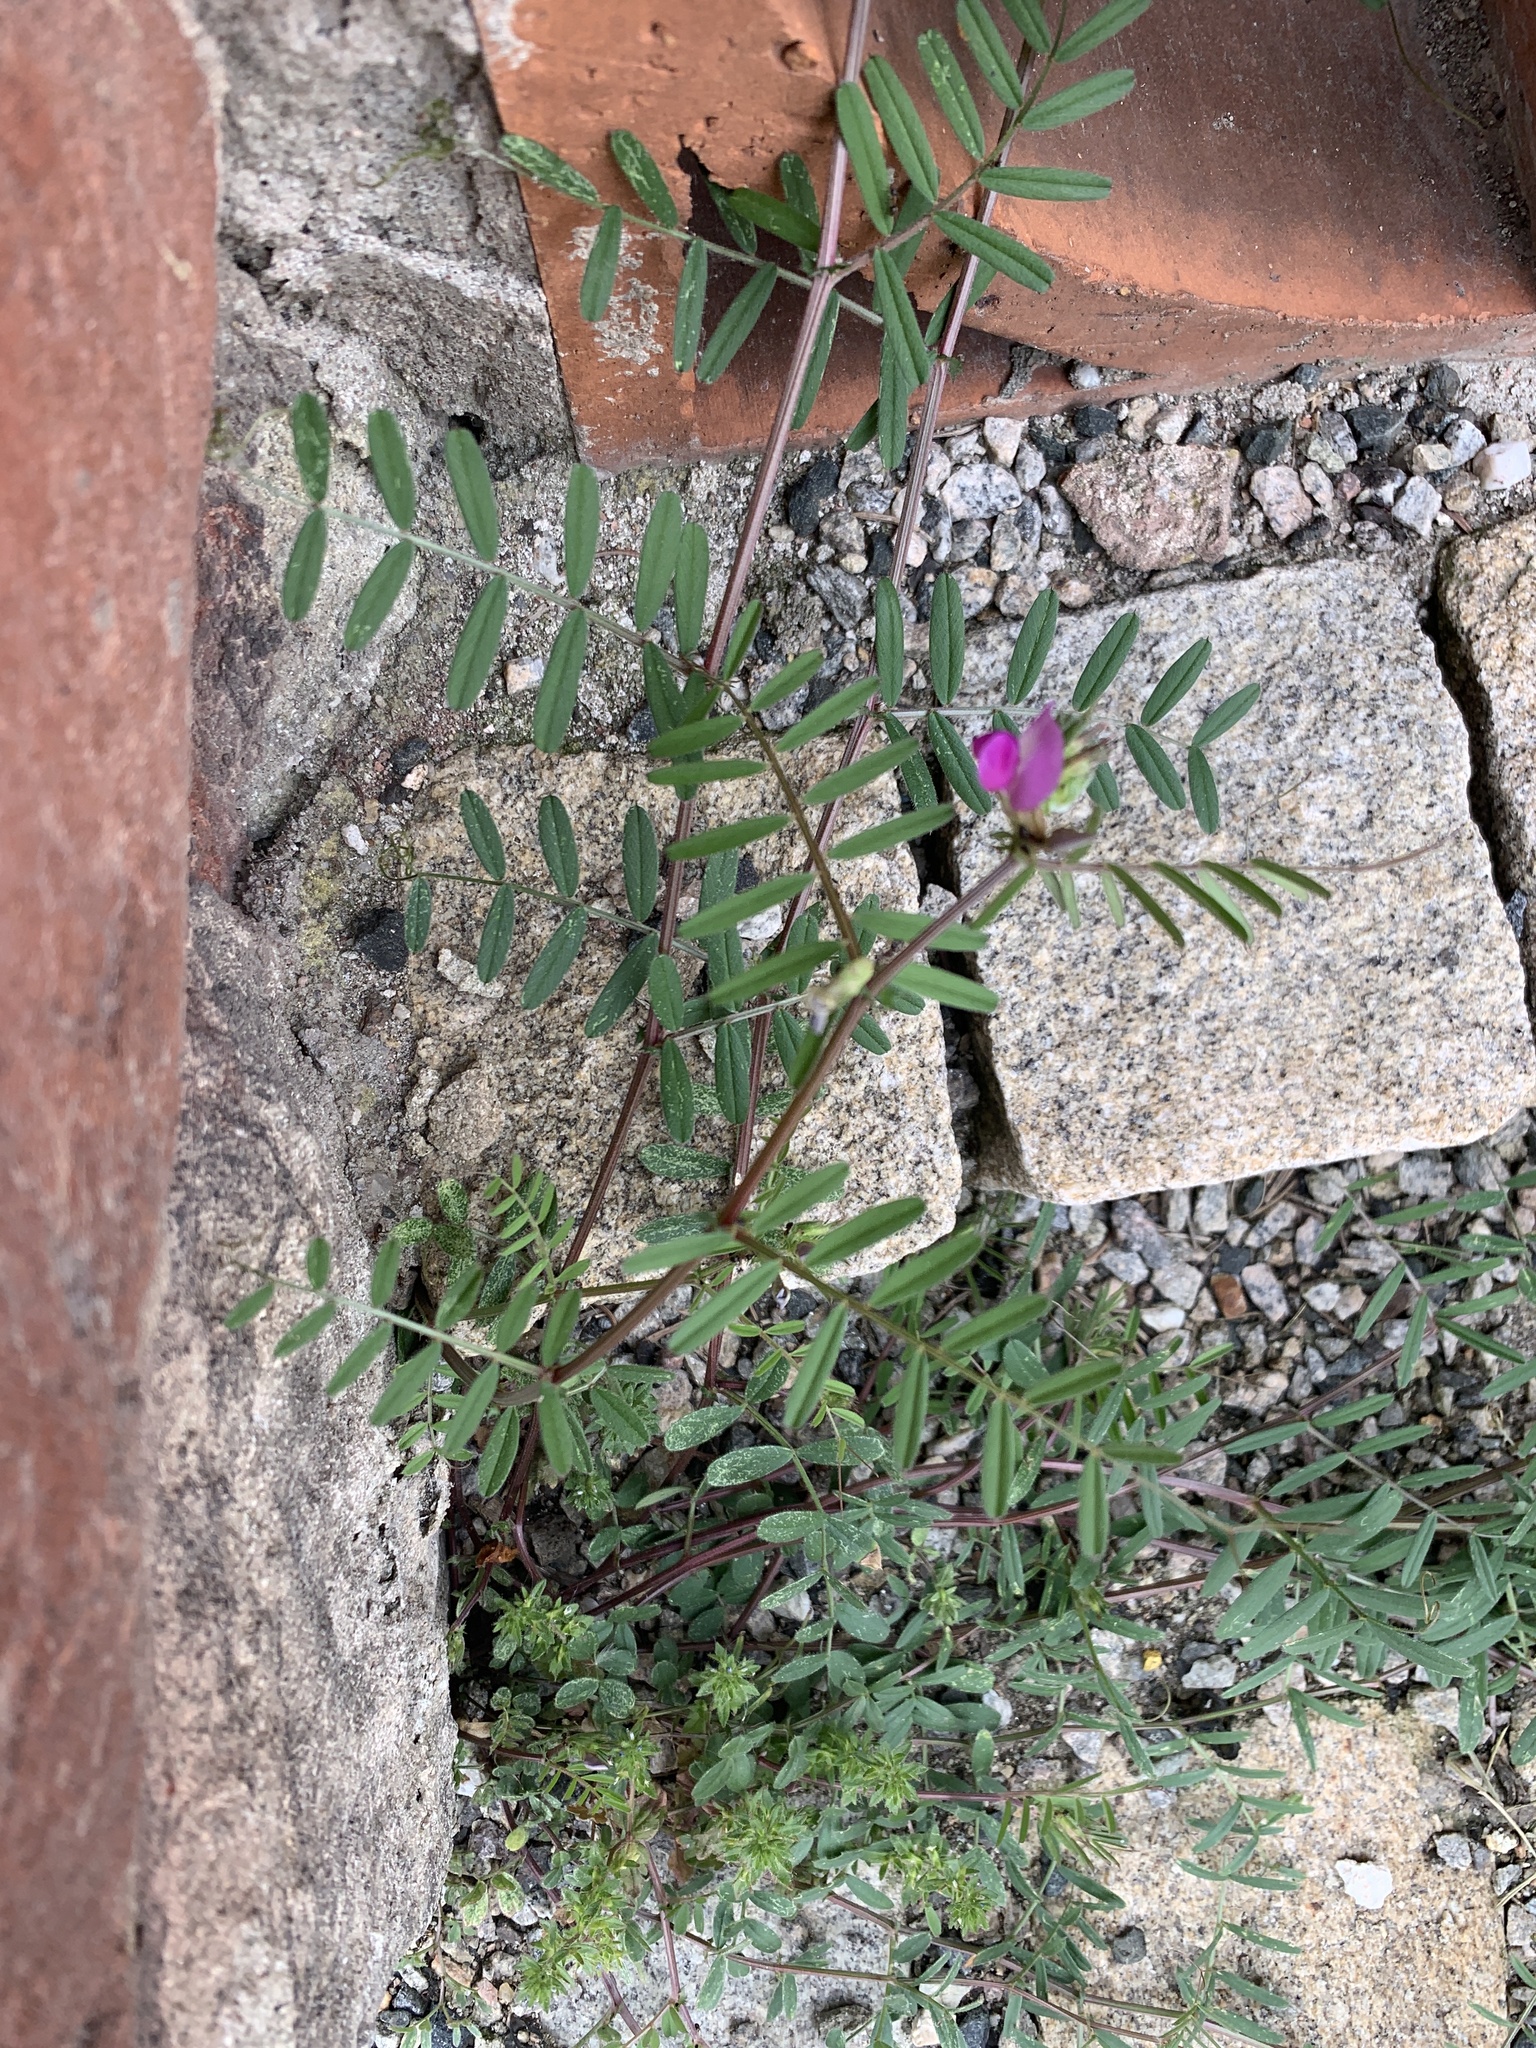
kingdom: Plantae
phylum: Tracheophyta
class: Magnoliopsida
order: Fabales
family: Fabaceae
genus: Vicia
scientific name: Vicia sativa
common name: Garden vetch
